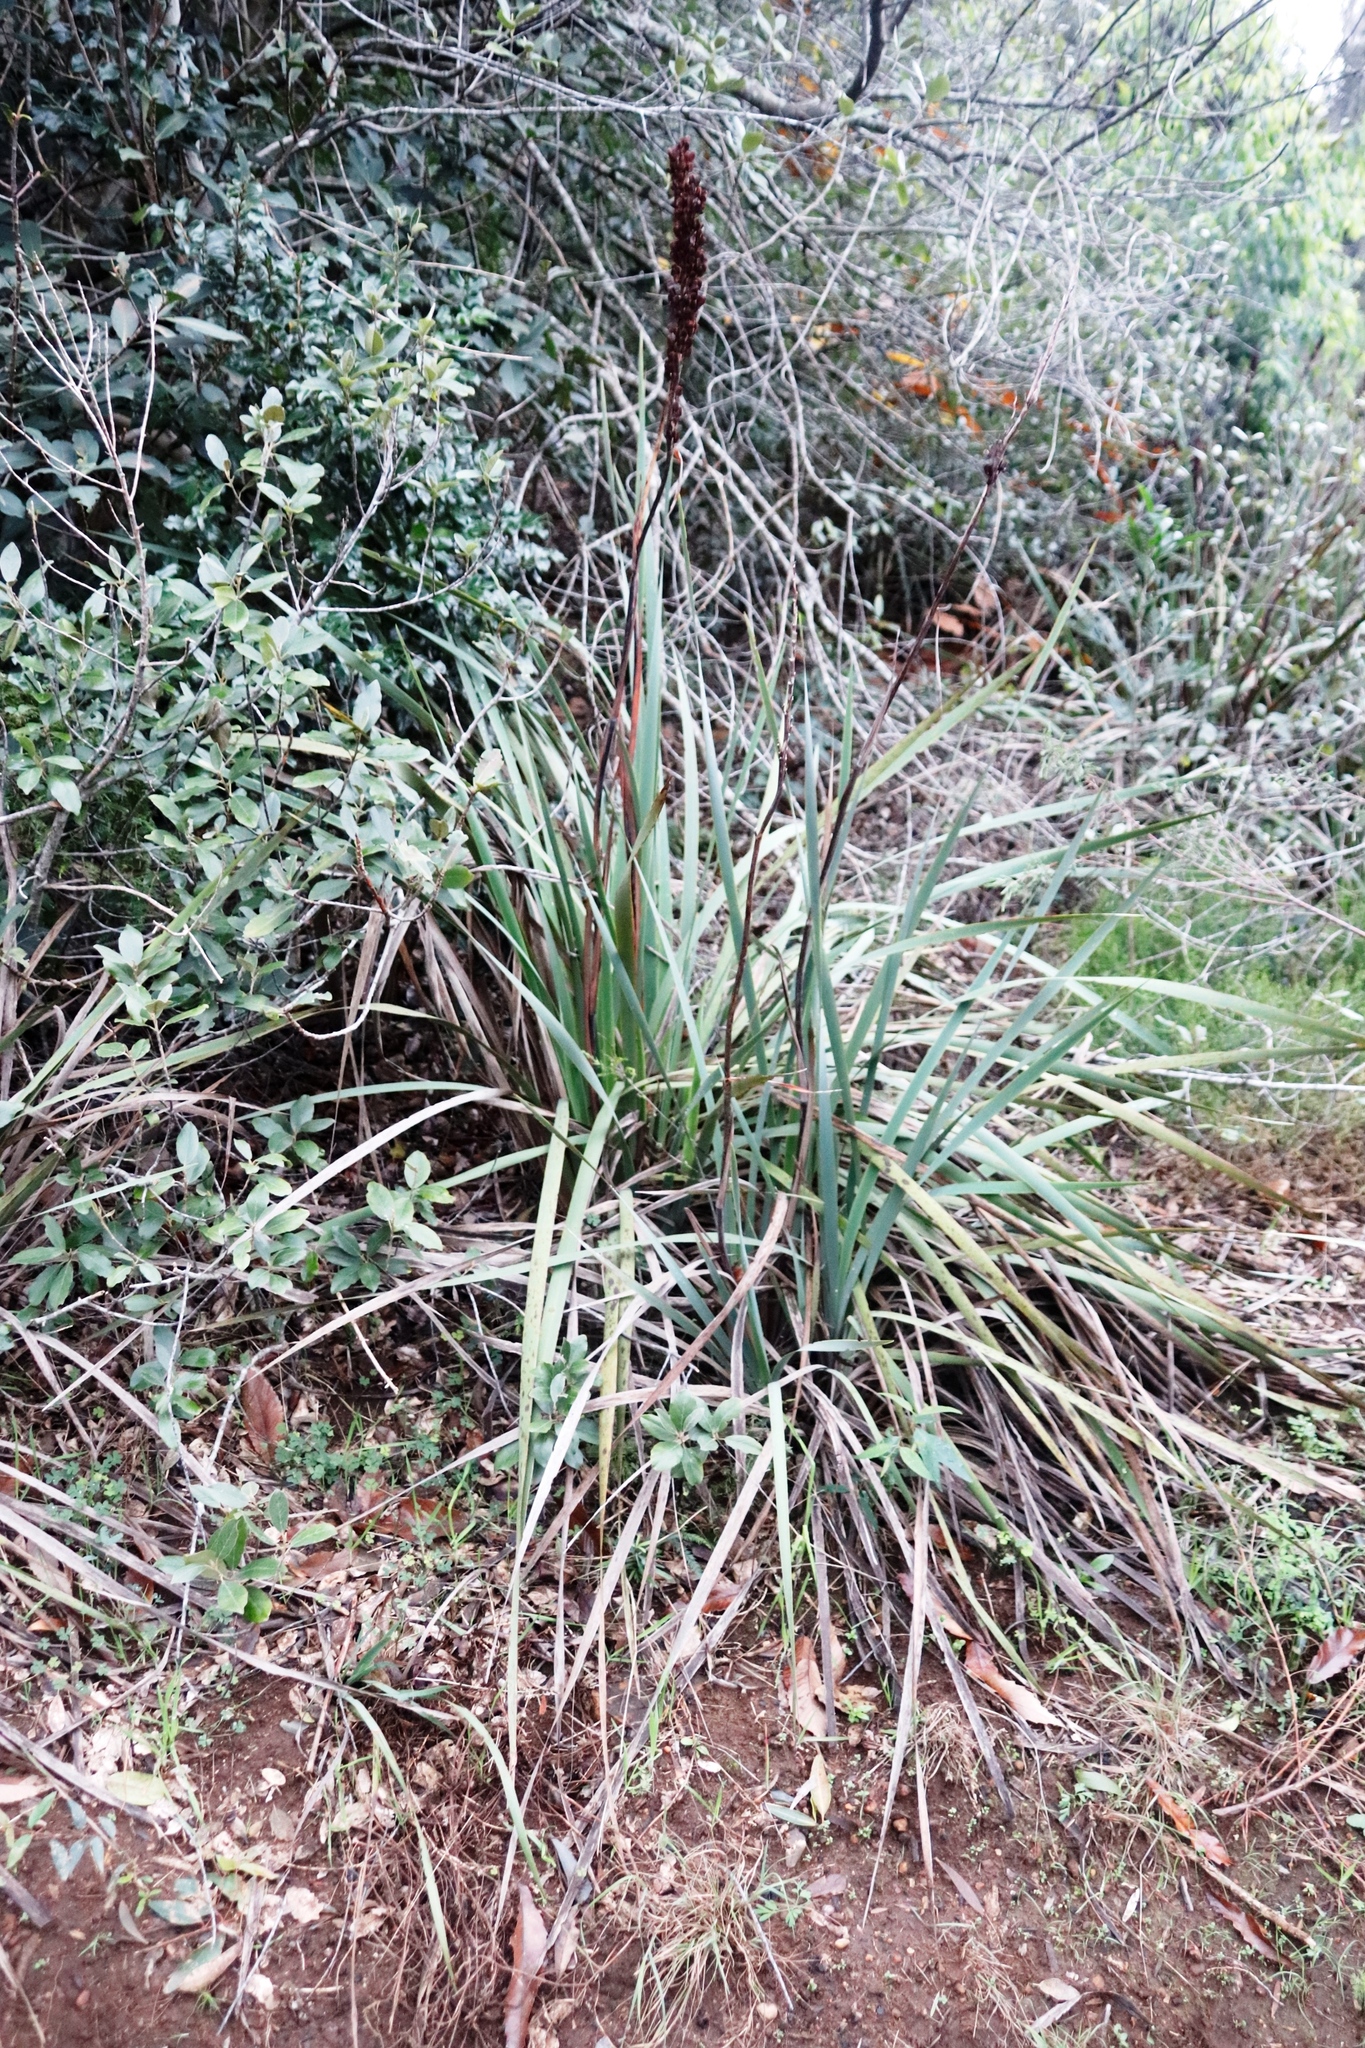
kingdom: Plantae
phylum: Tracheophyta
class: Liliopsida
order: Asparagales
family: Iridaceae
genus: Aristea
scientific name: Aristea capitata
